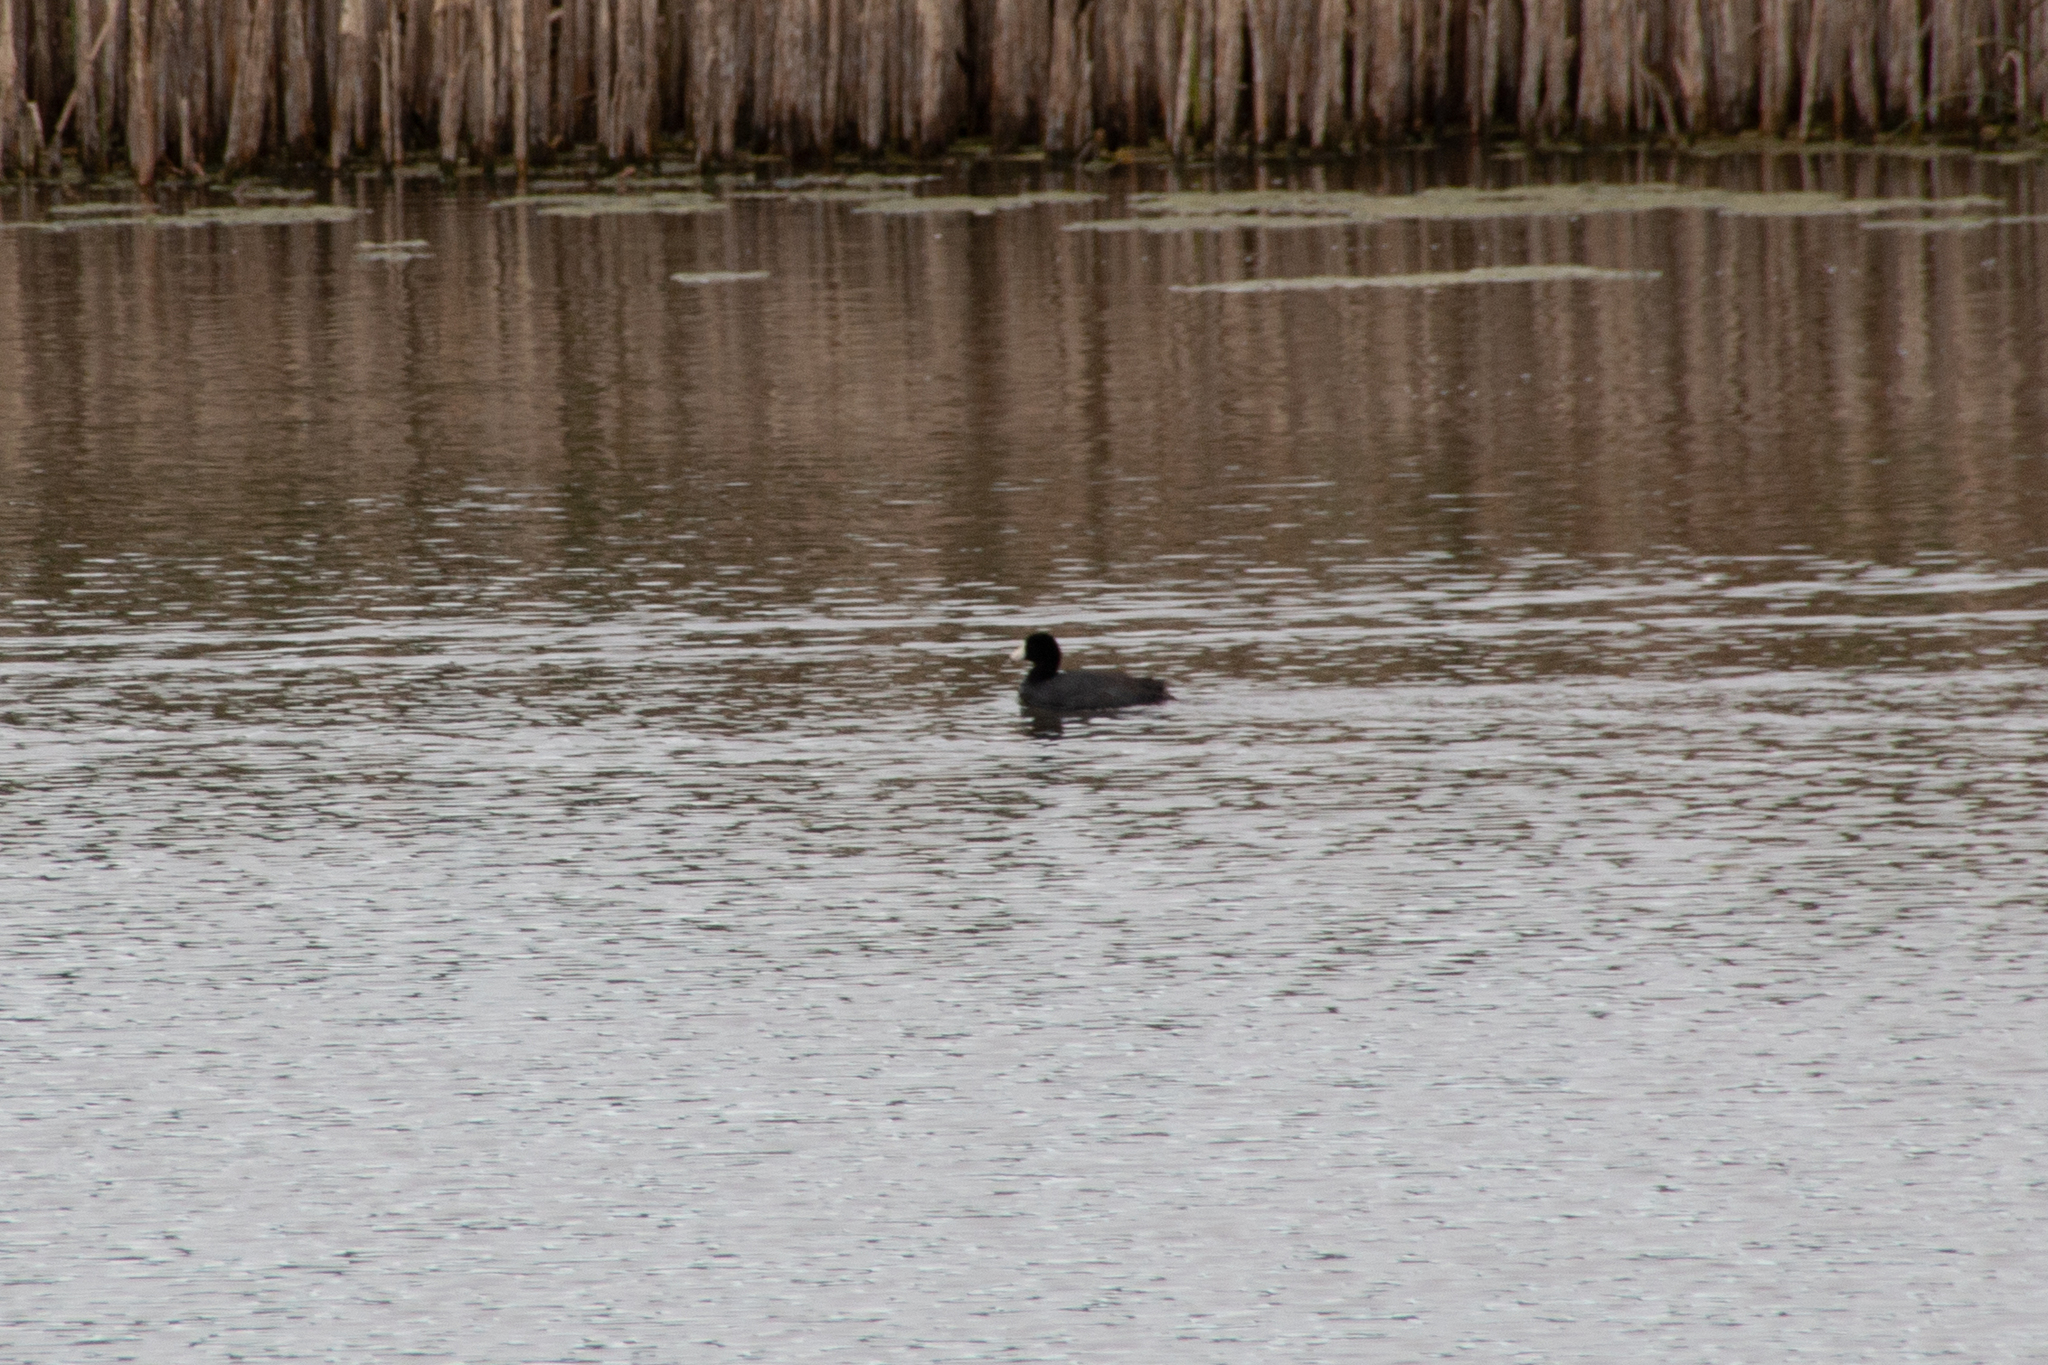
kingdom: Animalia
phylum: Chordata
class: Aves
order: Gruiformes
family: Rallidae
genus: Fulica
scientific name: Fulica americana
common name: American coot
